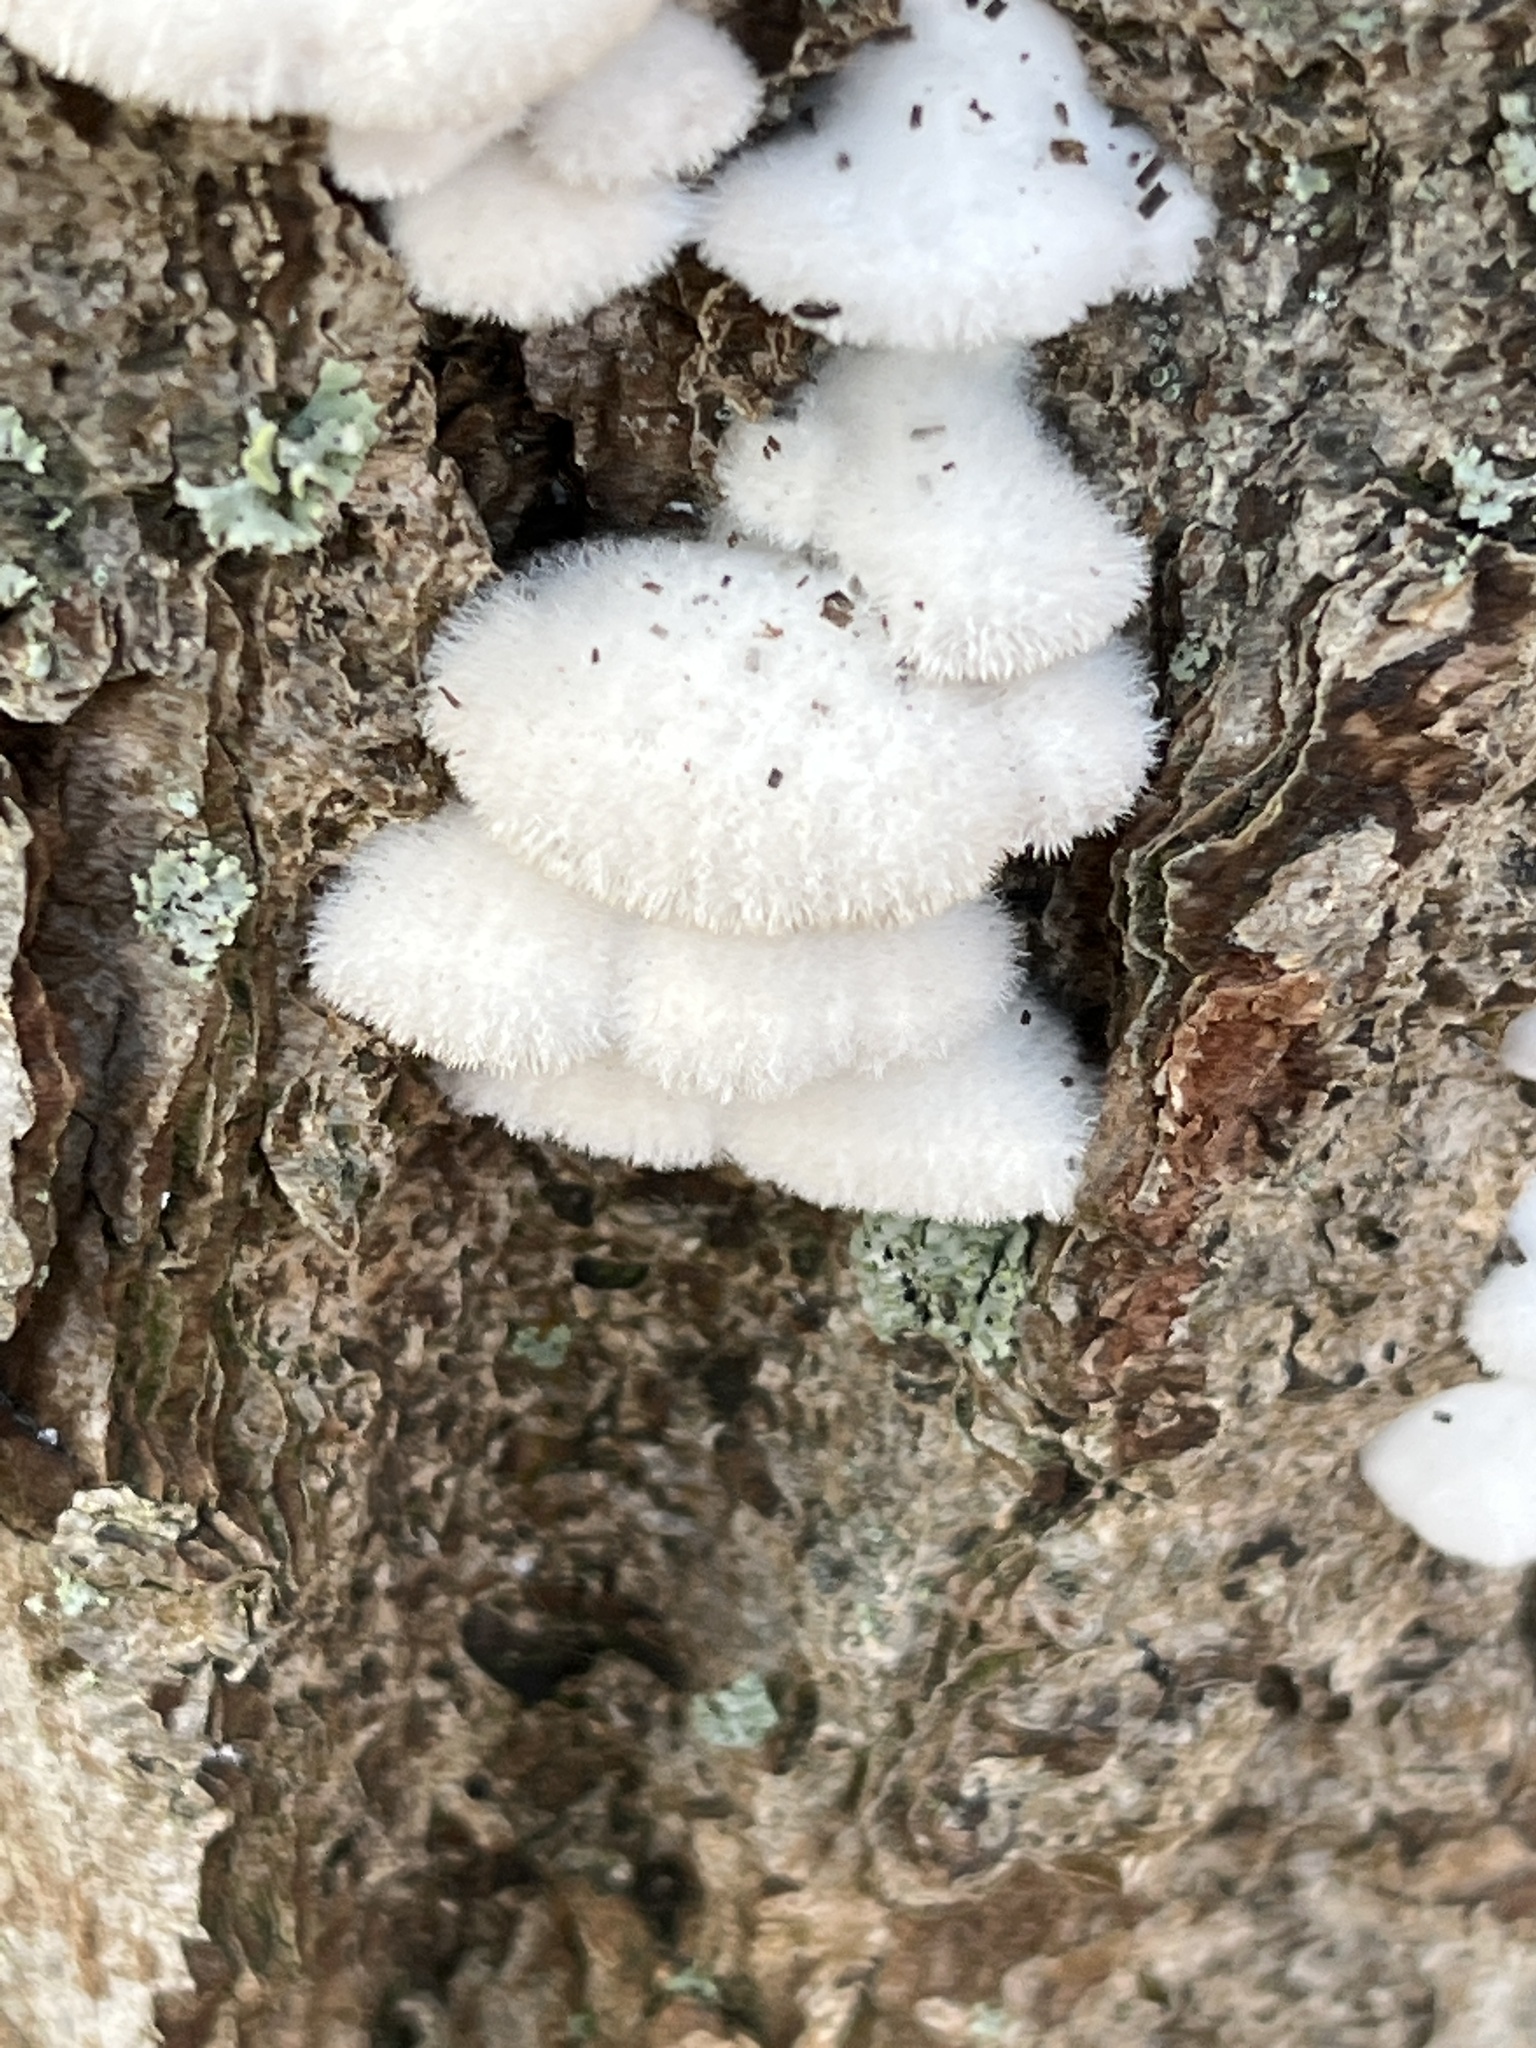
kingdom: Fungi
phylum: Basidiomycota
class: Agaricomycetes
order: Agaricales
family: Schizophyllaceae
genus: Schizophyllum
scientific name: Schizophyllum commune
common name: Common porecrust
